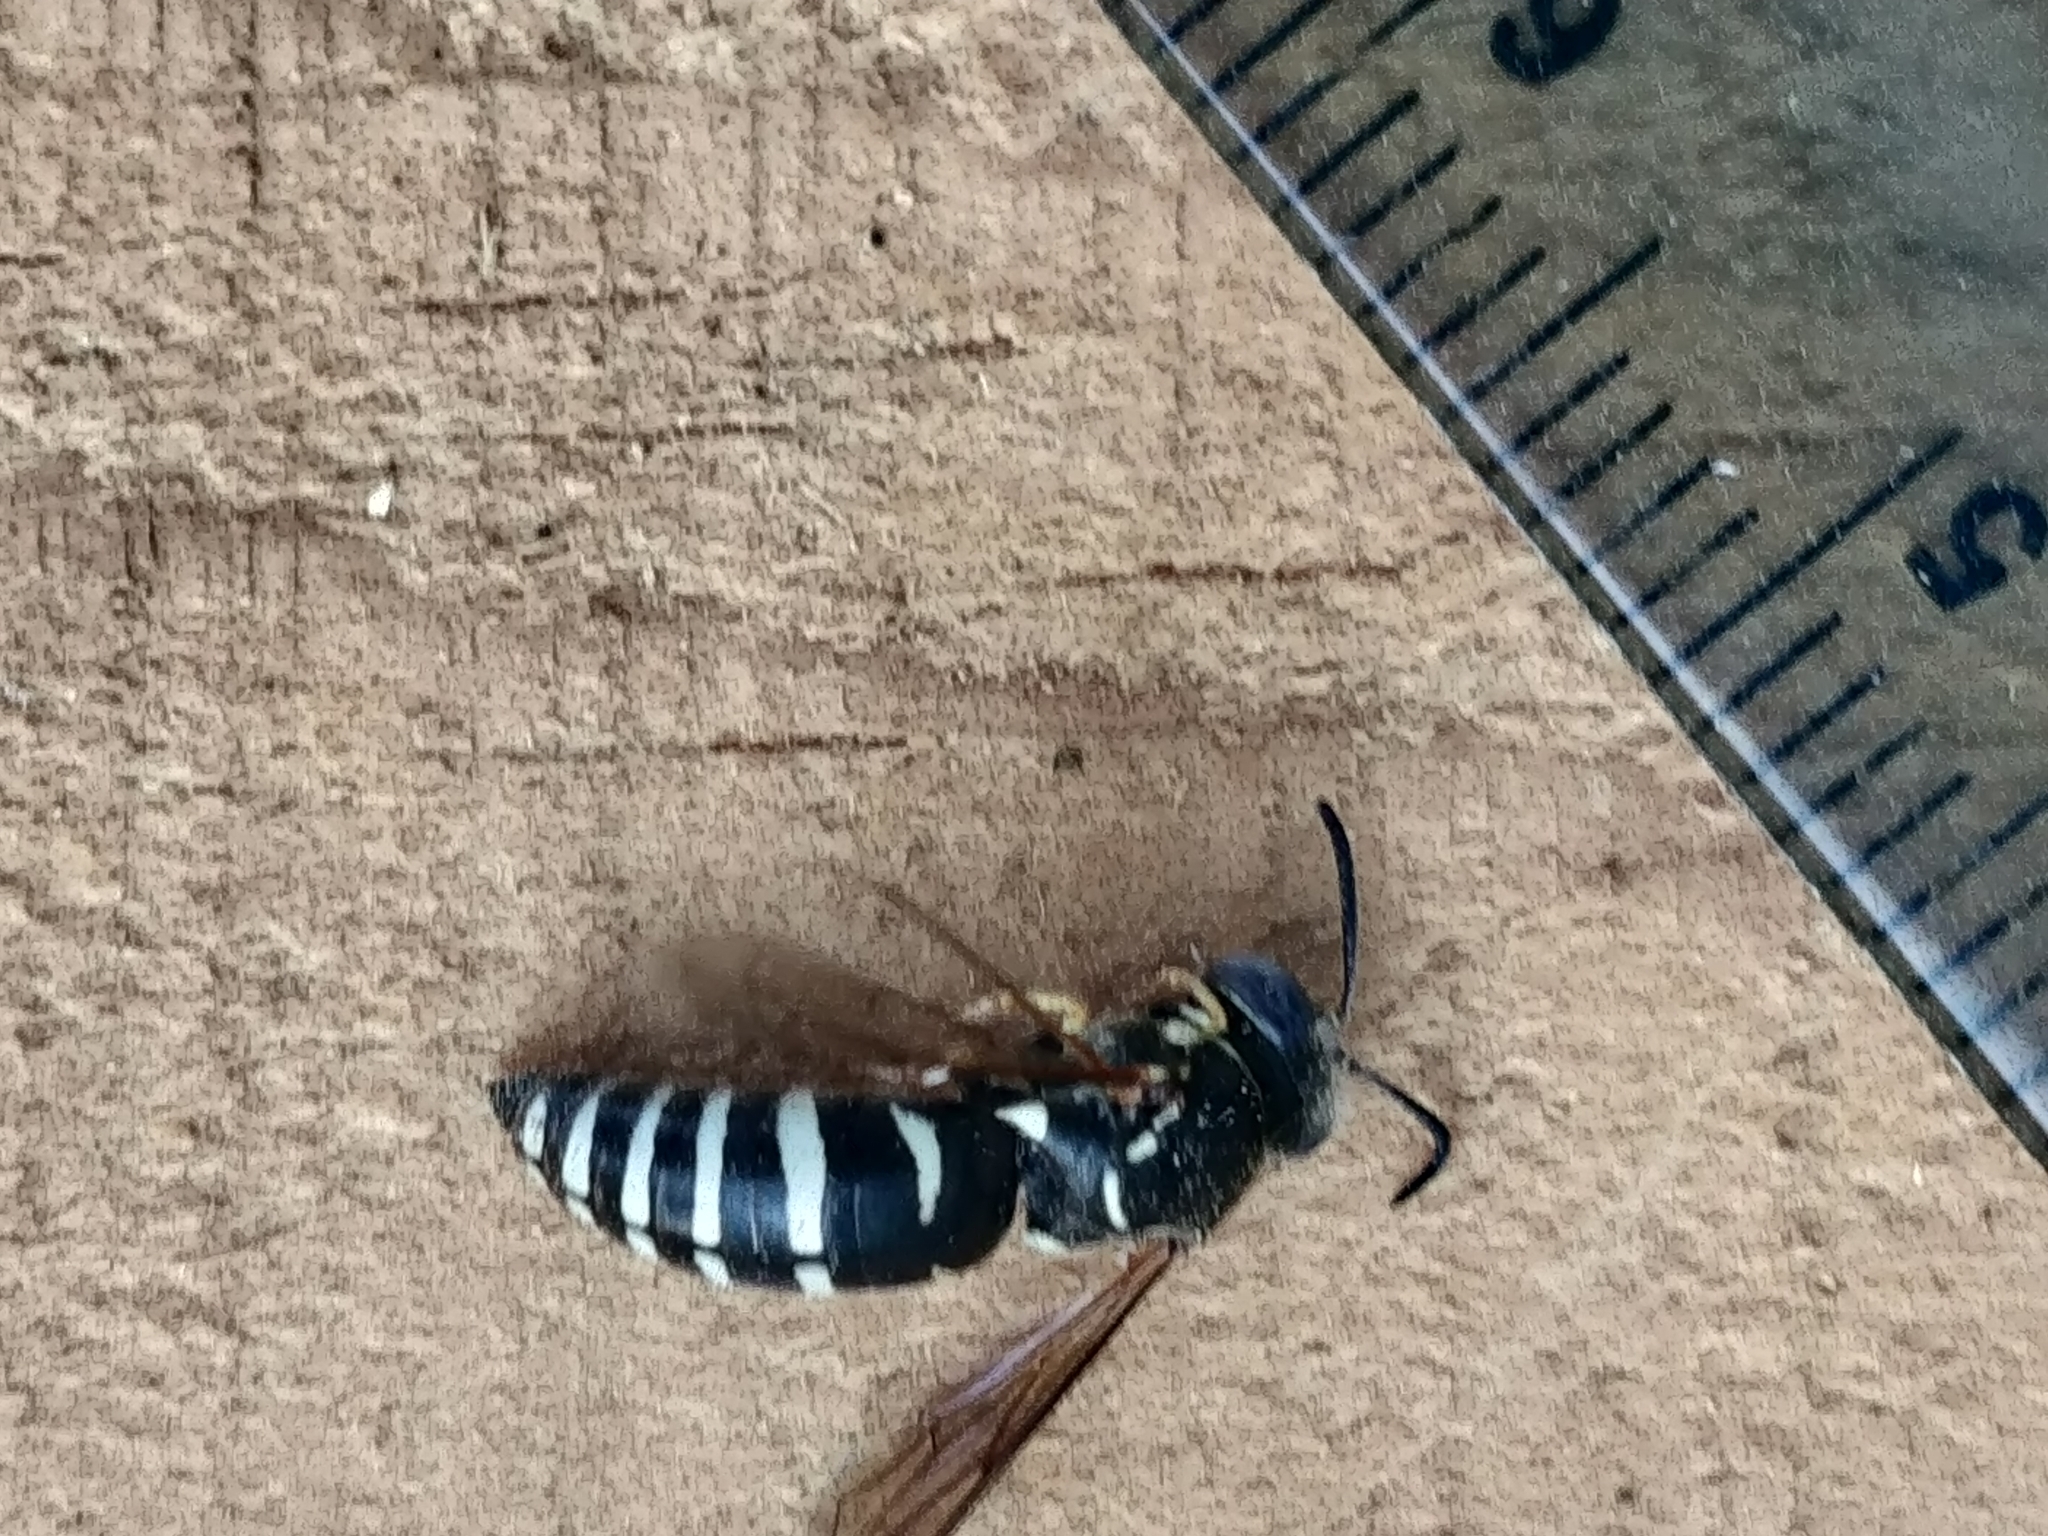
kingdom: Animalia
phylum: Arthropoda
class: Insecta
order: Hymenoptera
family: Crabronidae
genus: Bicyrtes
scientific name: Bicyrtes ventralis
